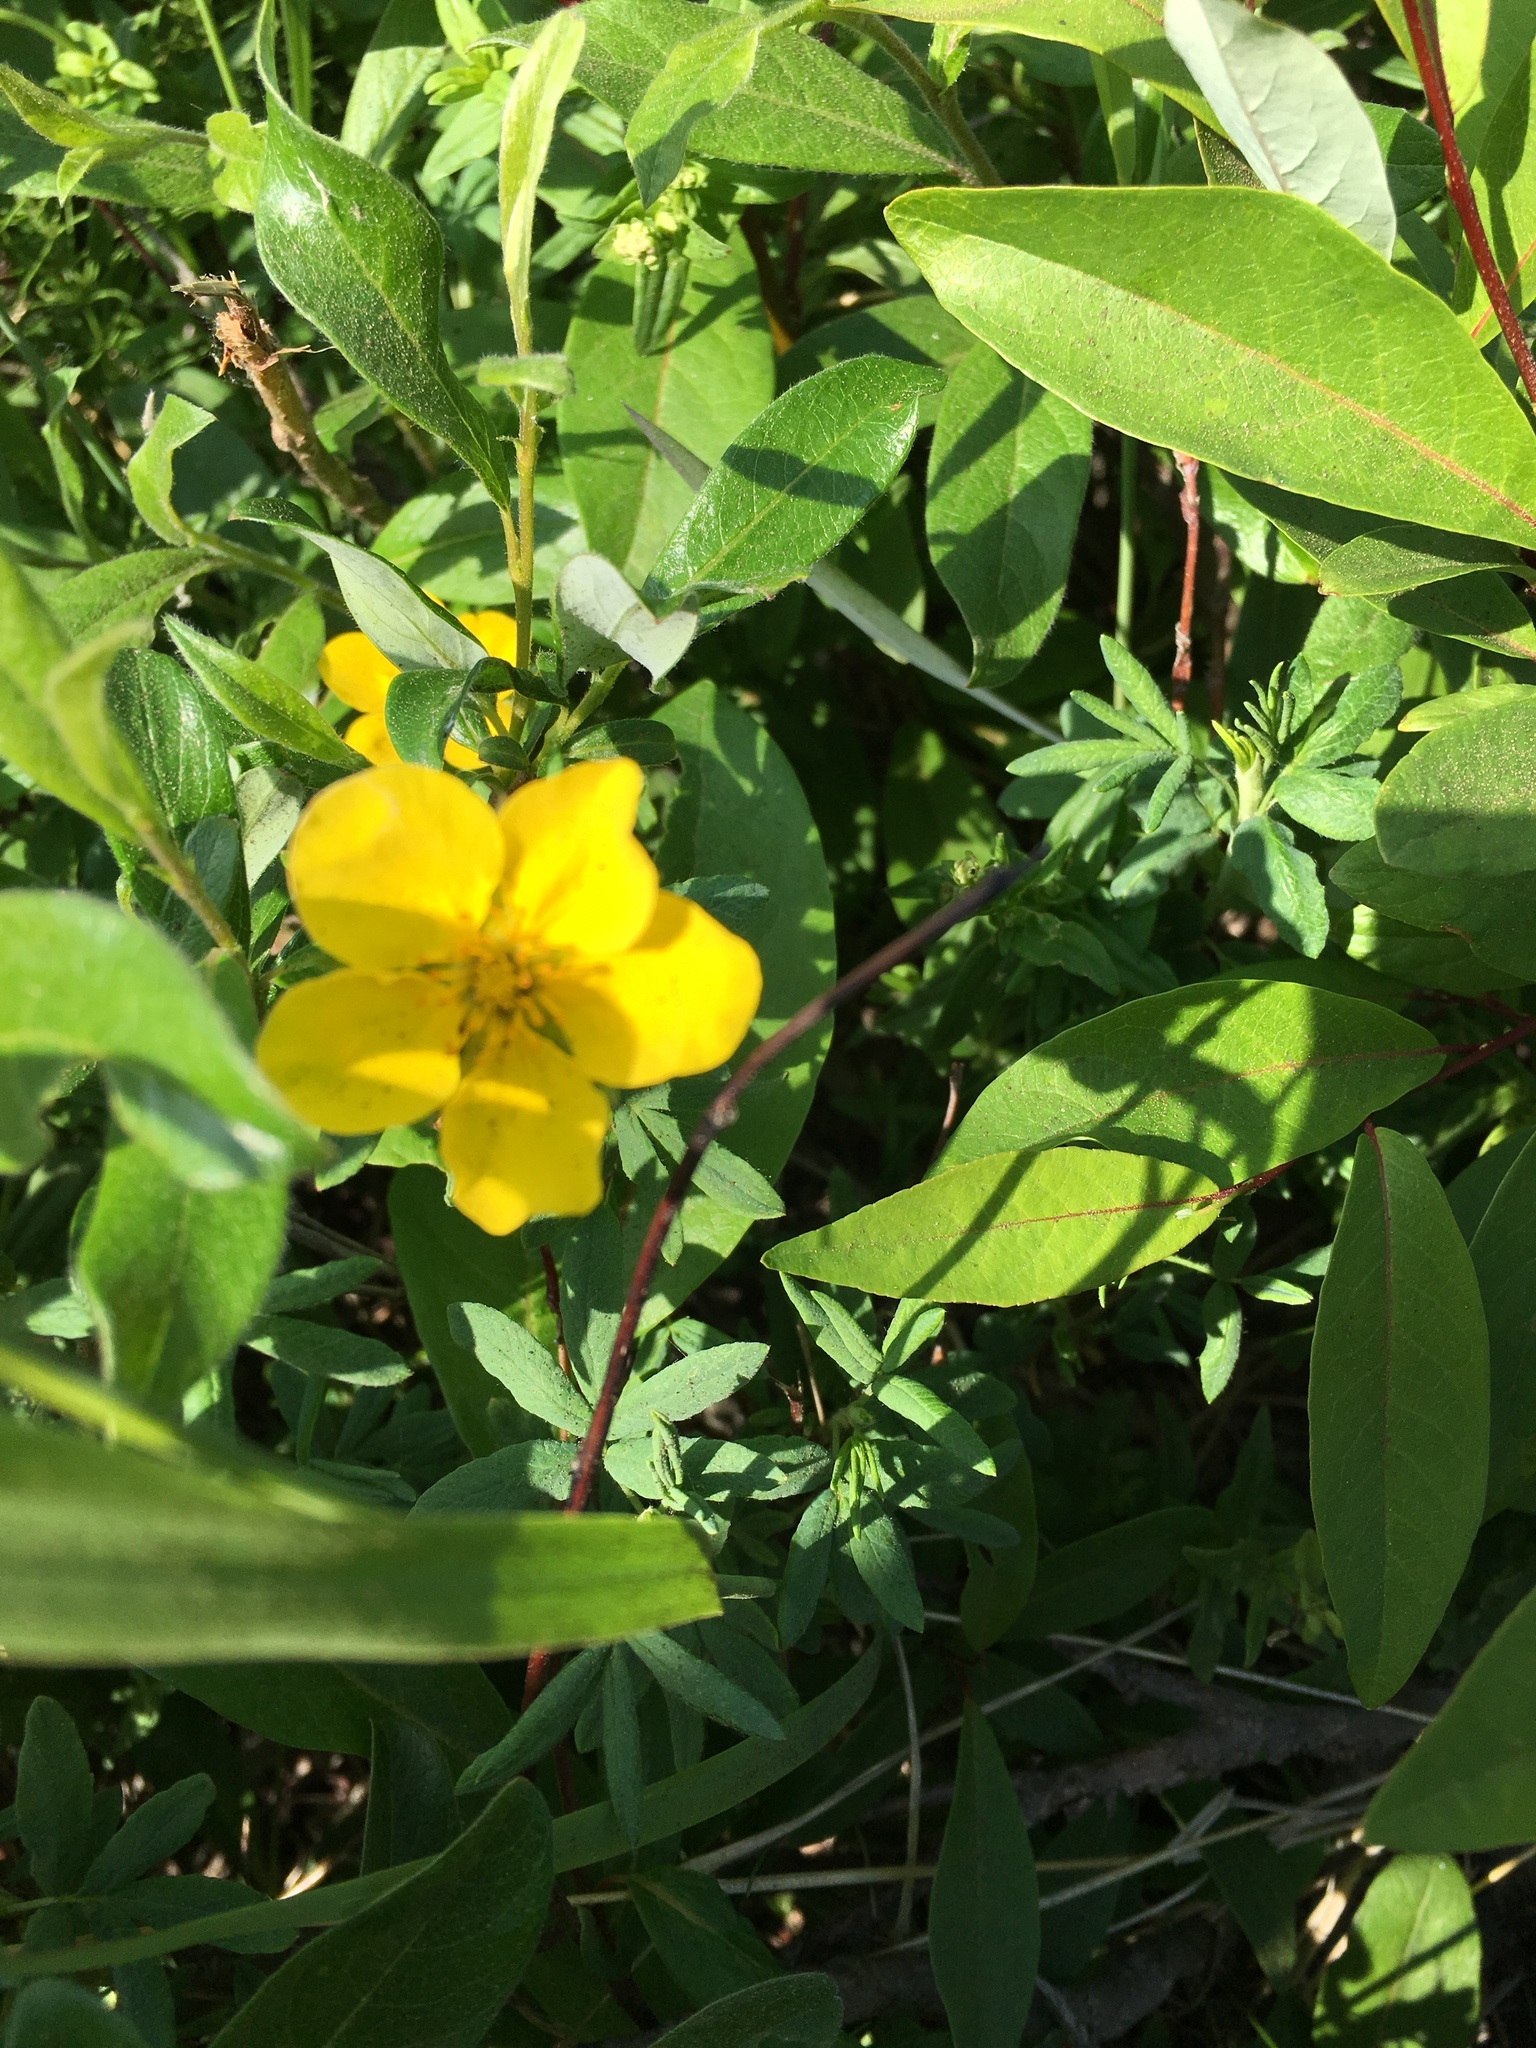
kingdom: Plantae
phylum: Tracheophyta
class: Magnoliopsida
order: Rosales
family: Rosaceae
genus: Dasiphora
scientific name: Dasiphora fruticosa
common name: Shrubby cinquefoil
